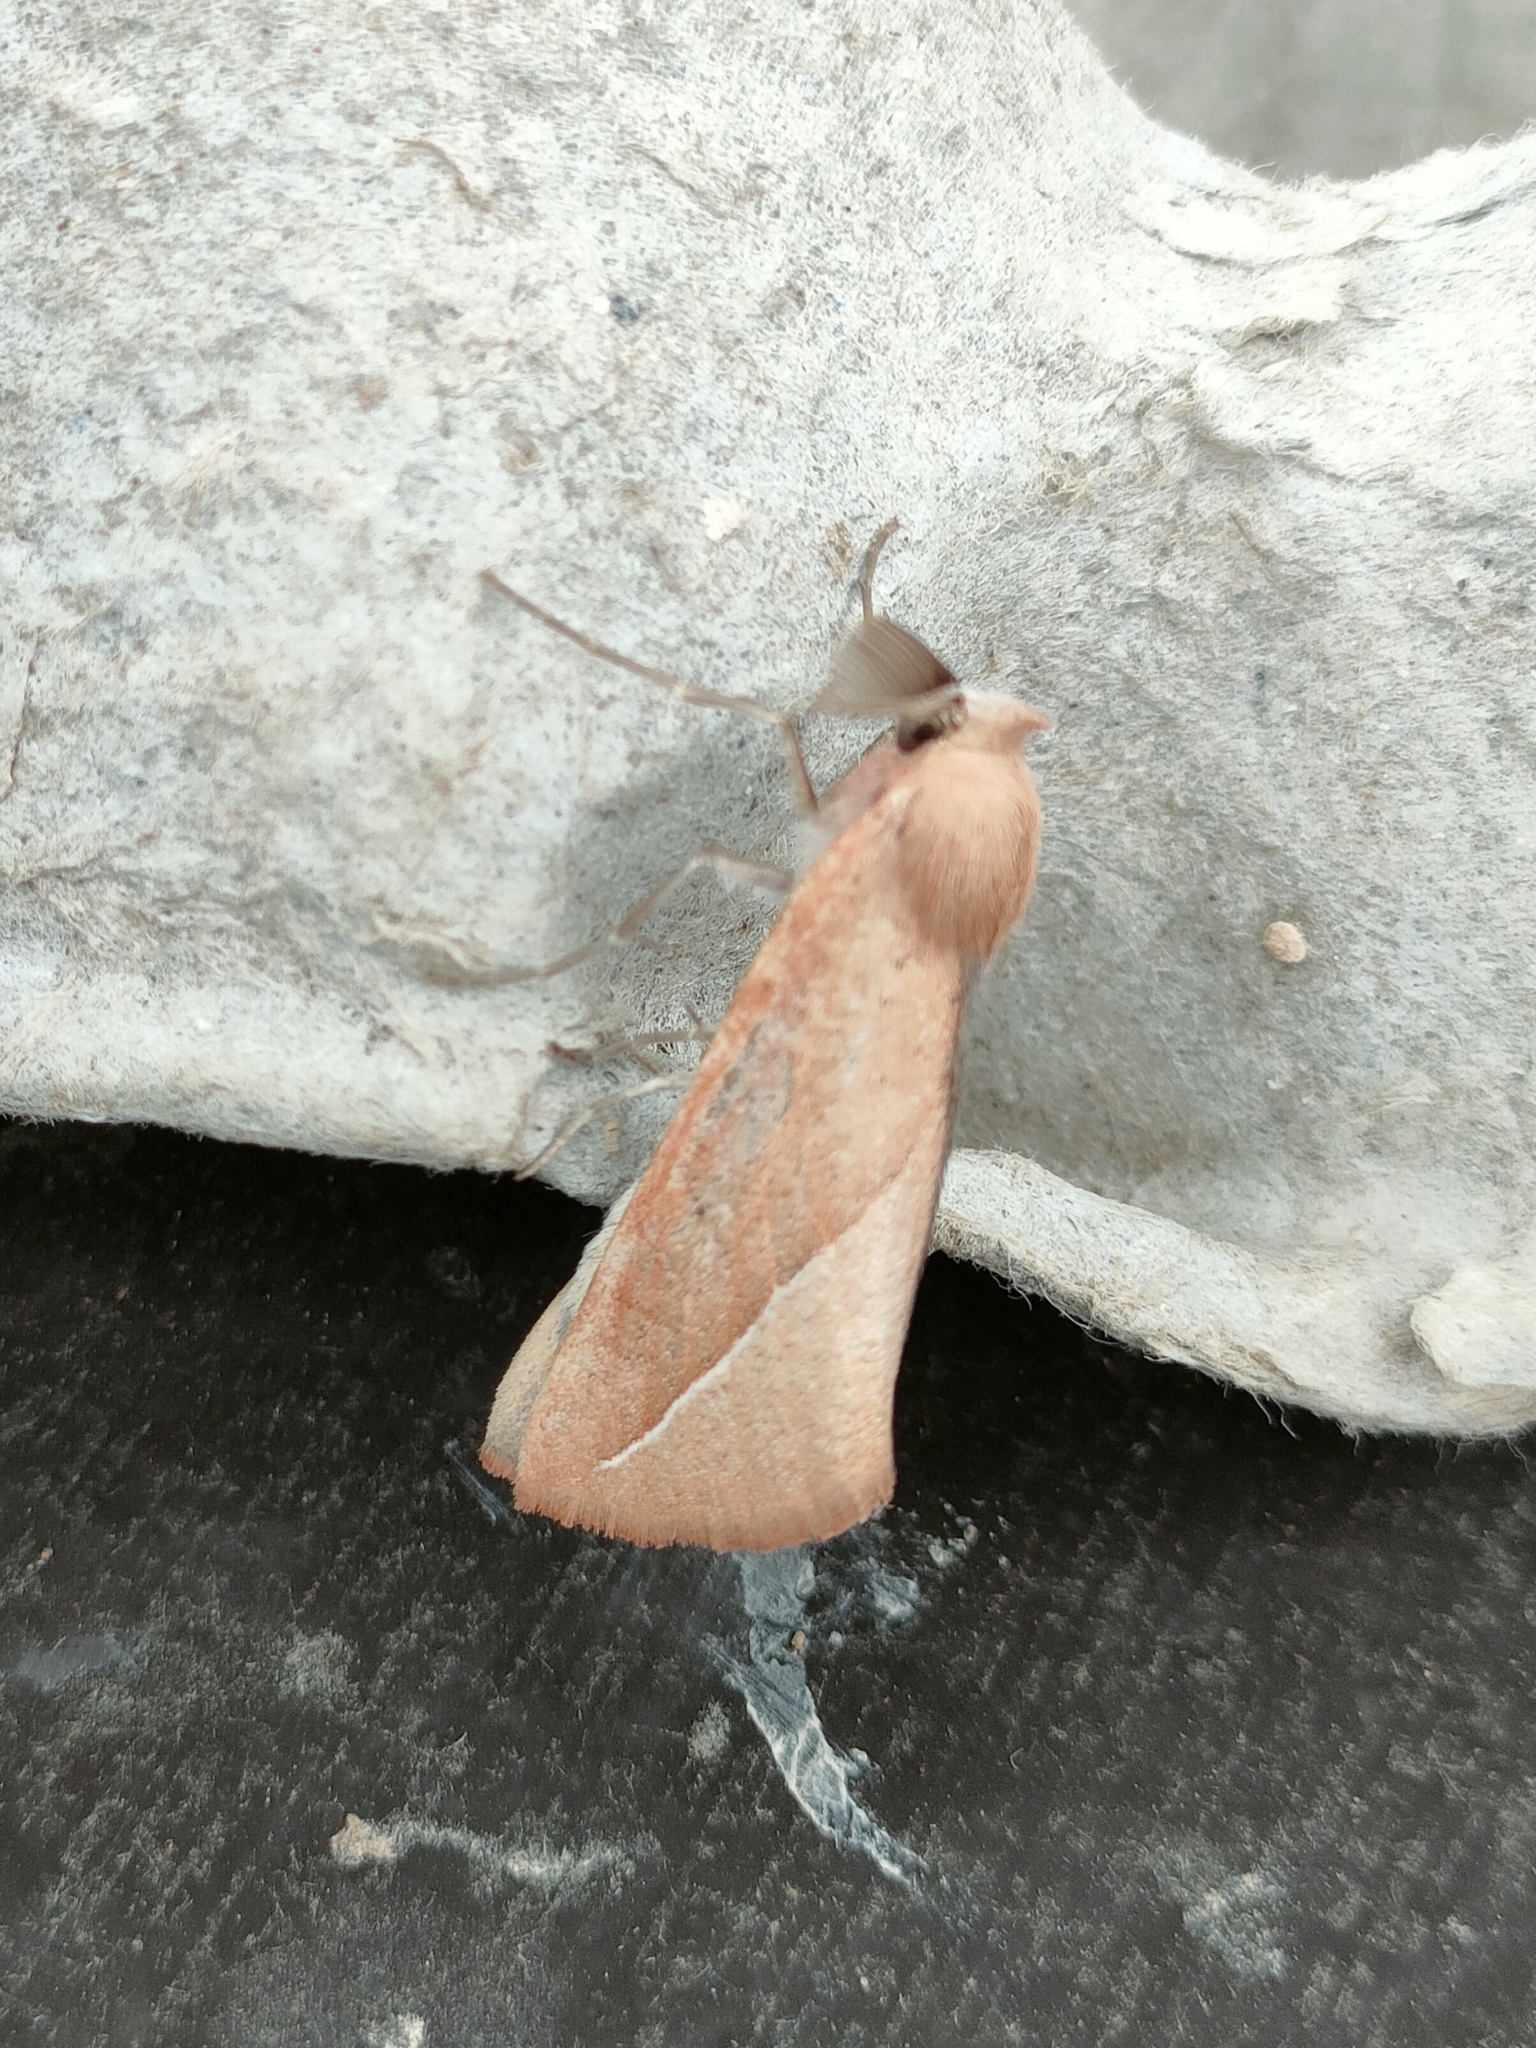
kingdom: Animalia
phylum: Arthropoda
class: Insecta
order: Lepidoptera
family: Geometridae
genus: Compsoptera
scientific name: Compsoptera opacaria
